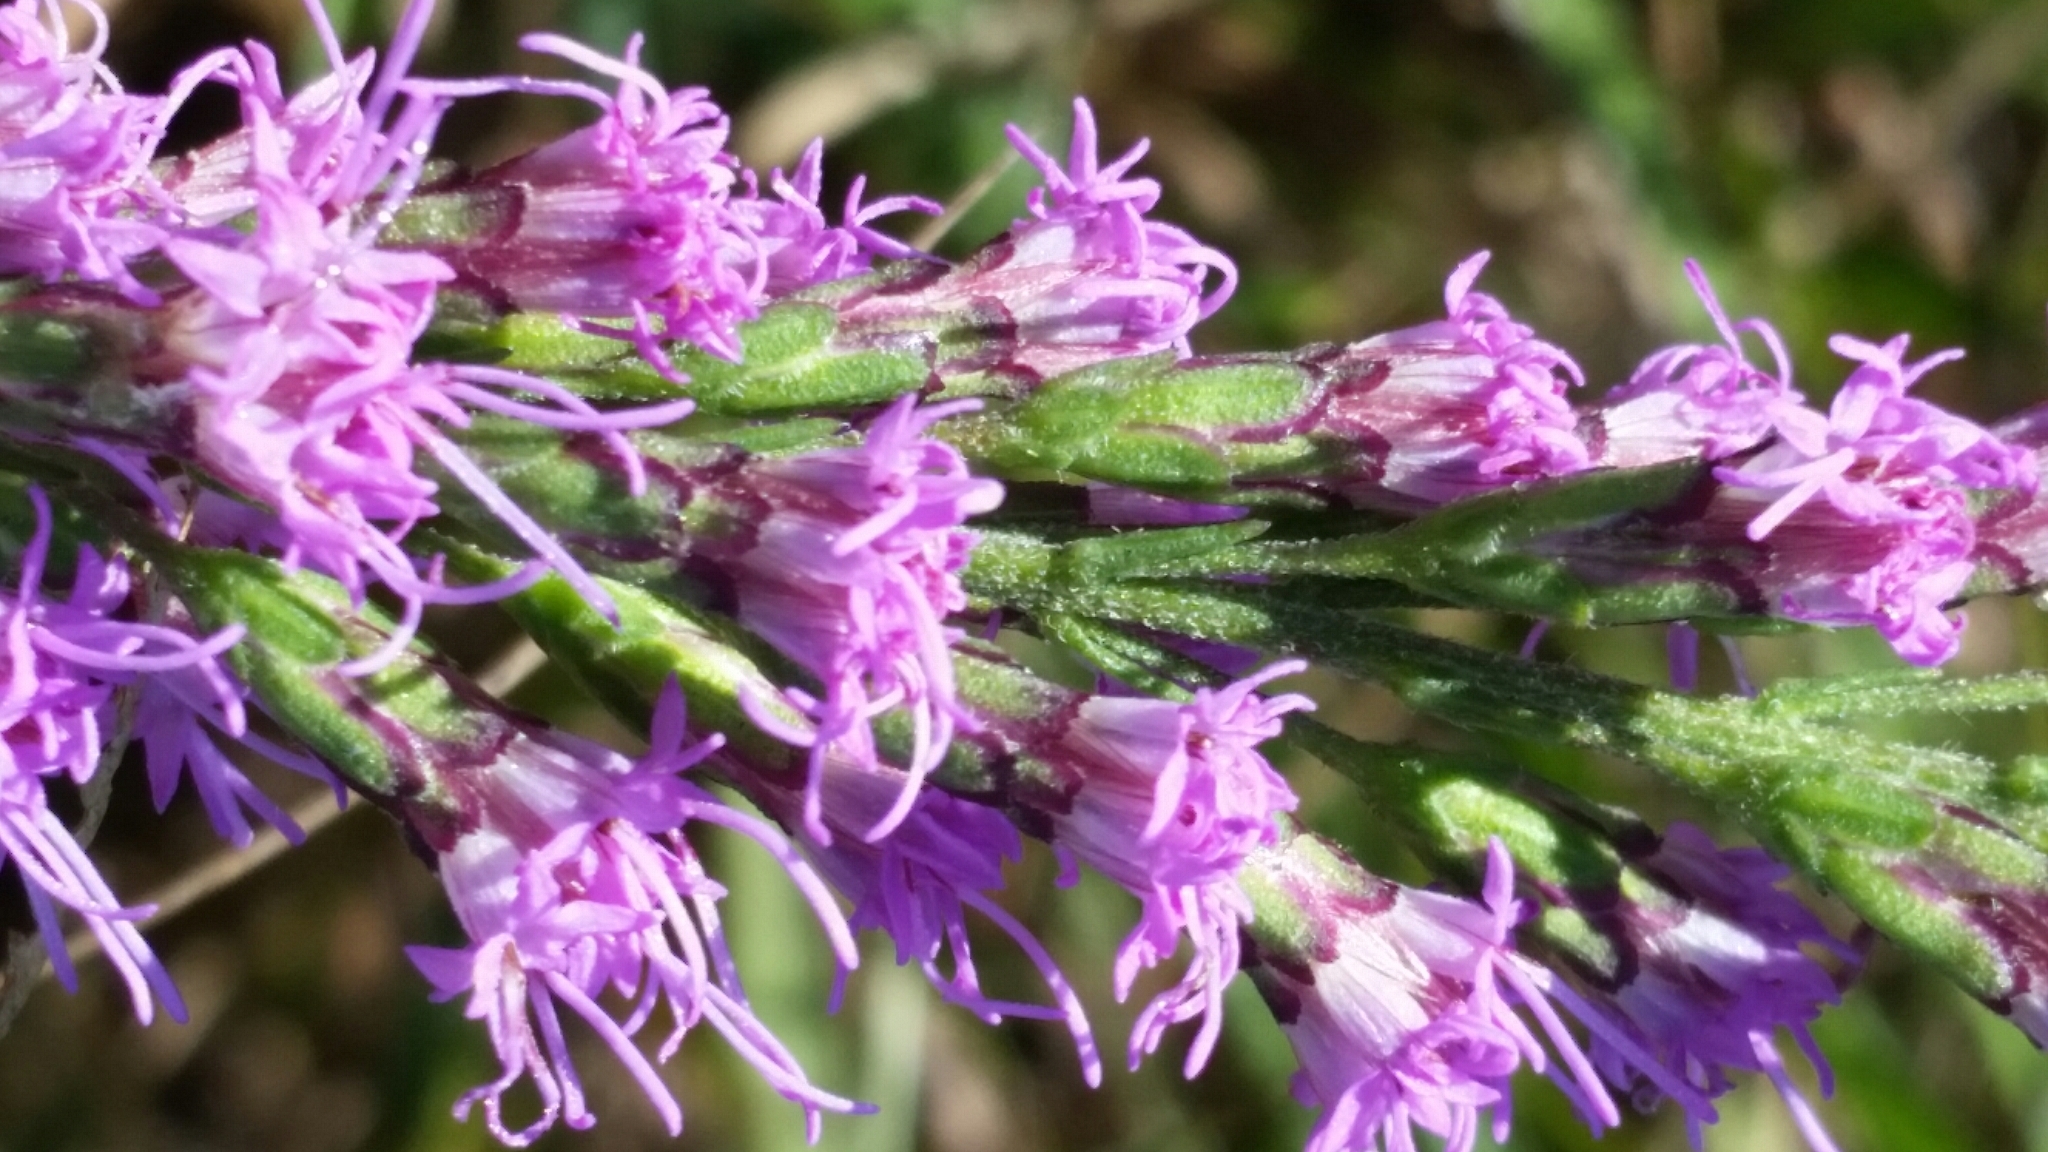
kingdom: Plantae
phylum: Tracheophyta
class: Magnoliopsida
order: Asterales
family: Asteraceae
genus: Liatris
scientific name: Liatris gracilis
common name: Slender gayfeather
